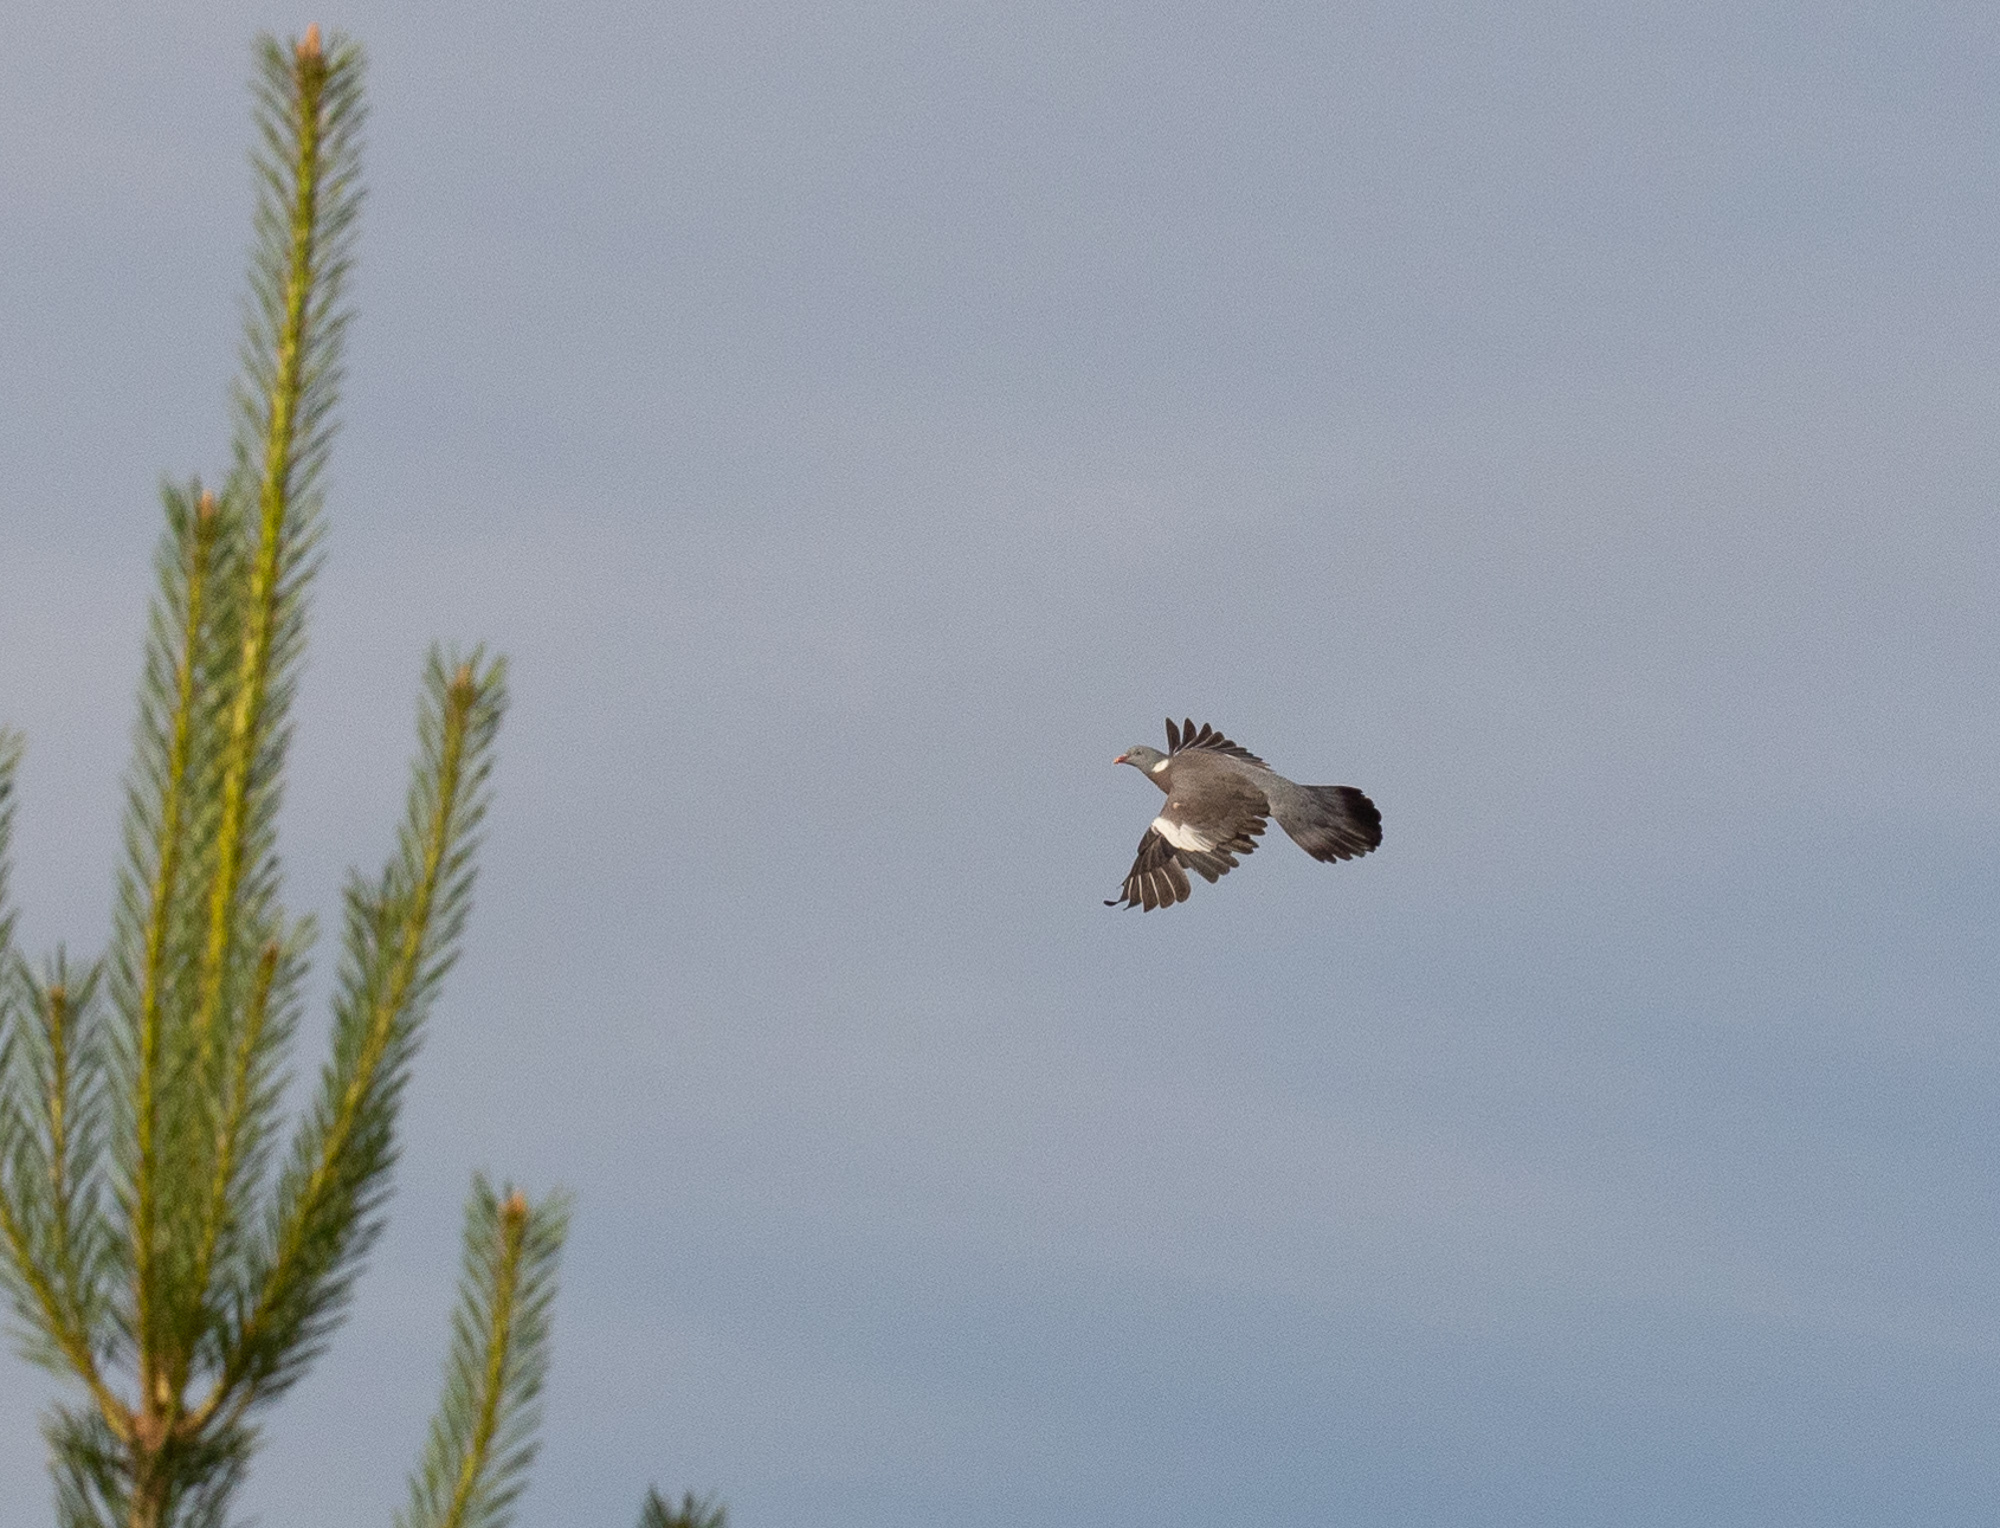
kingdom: Animalia
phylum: Chordata
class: Aves
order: Columbiformes
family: Columbidae
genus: Columba
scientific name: Columba palumbus
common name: Common wood pigeon
